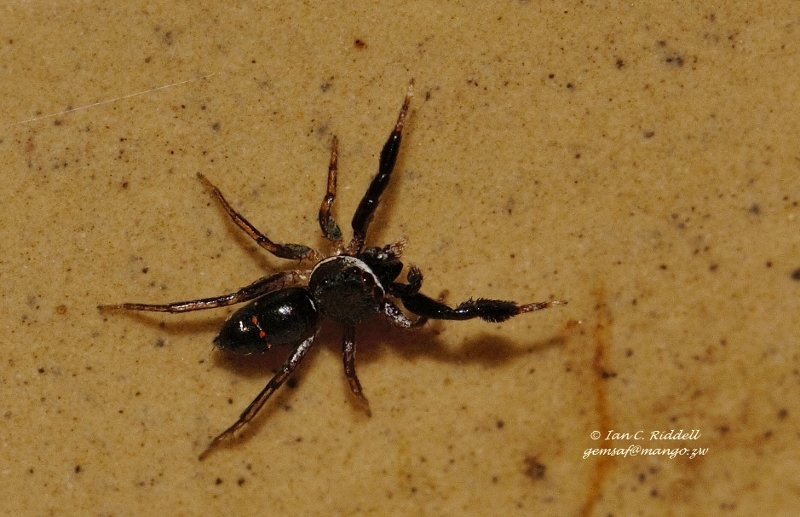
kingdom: Animalia
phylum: Arthropoda
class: Arachnida
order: Araneae
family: Salticidae
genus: Natta
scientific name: Natta horizontalis
